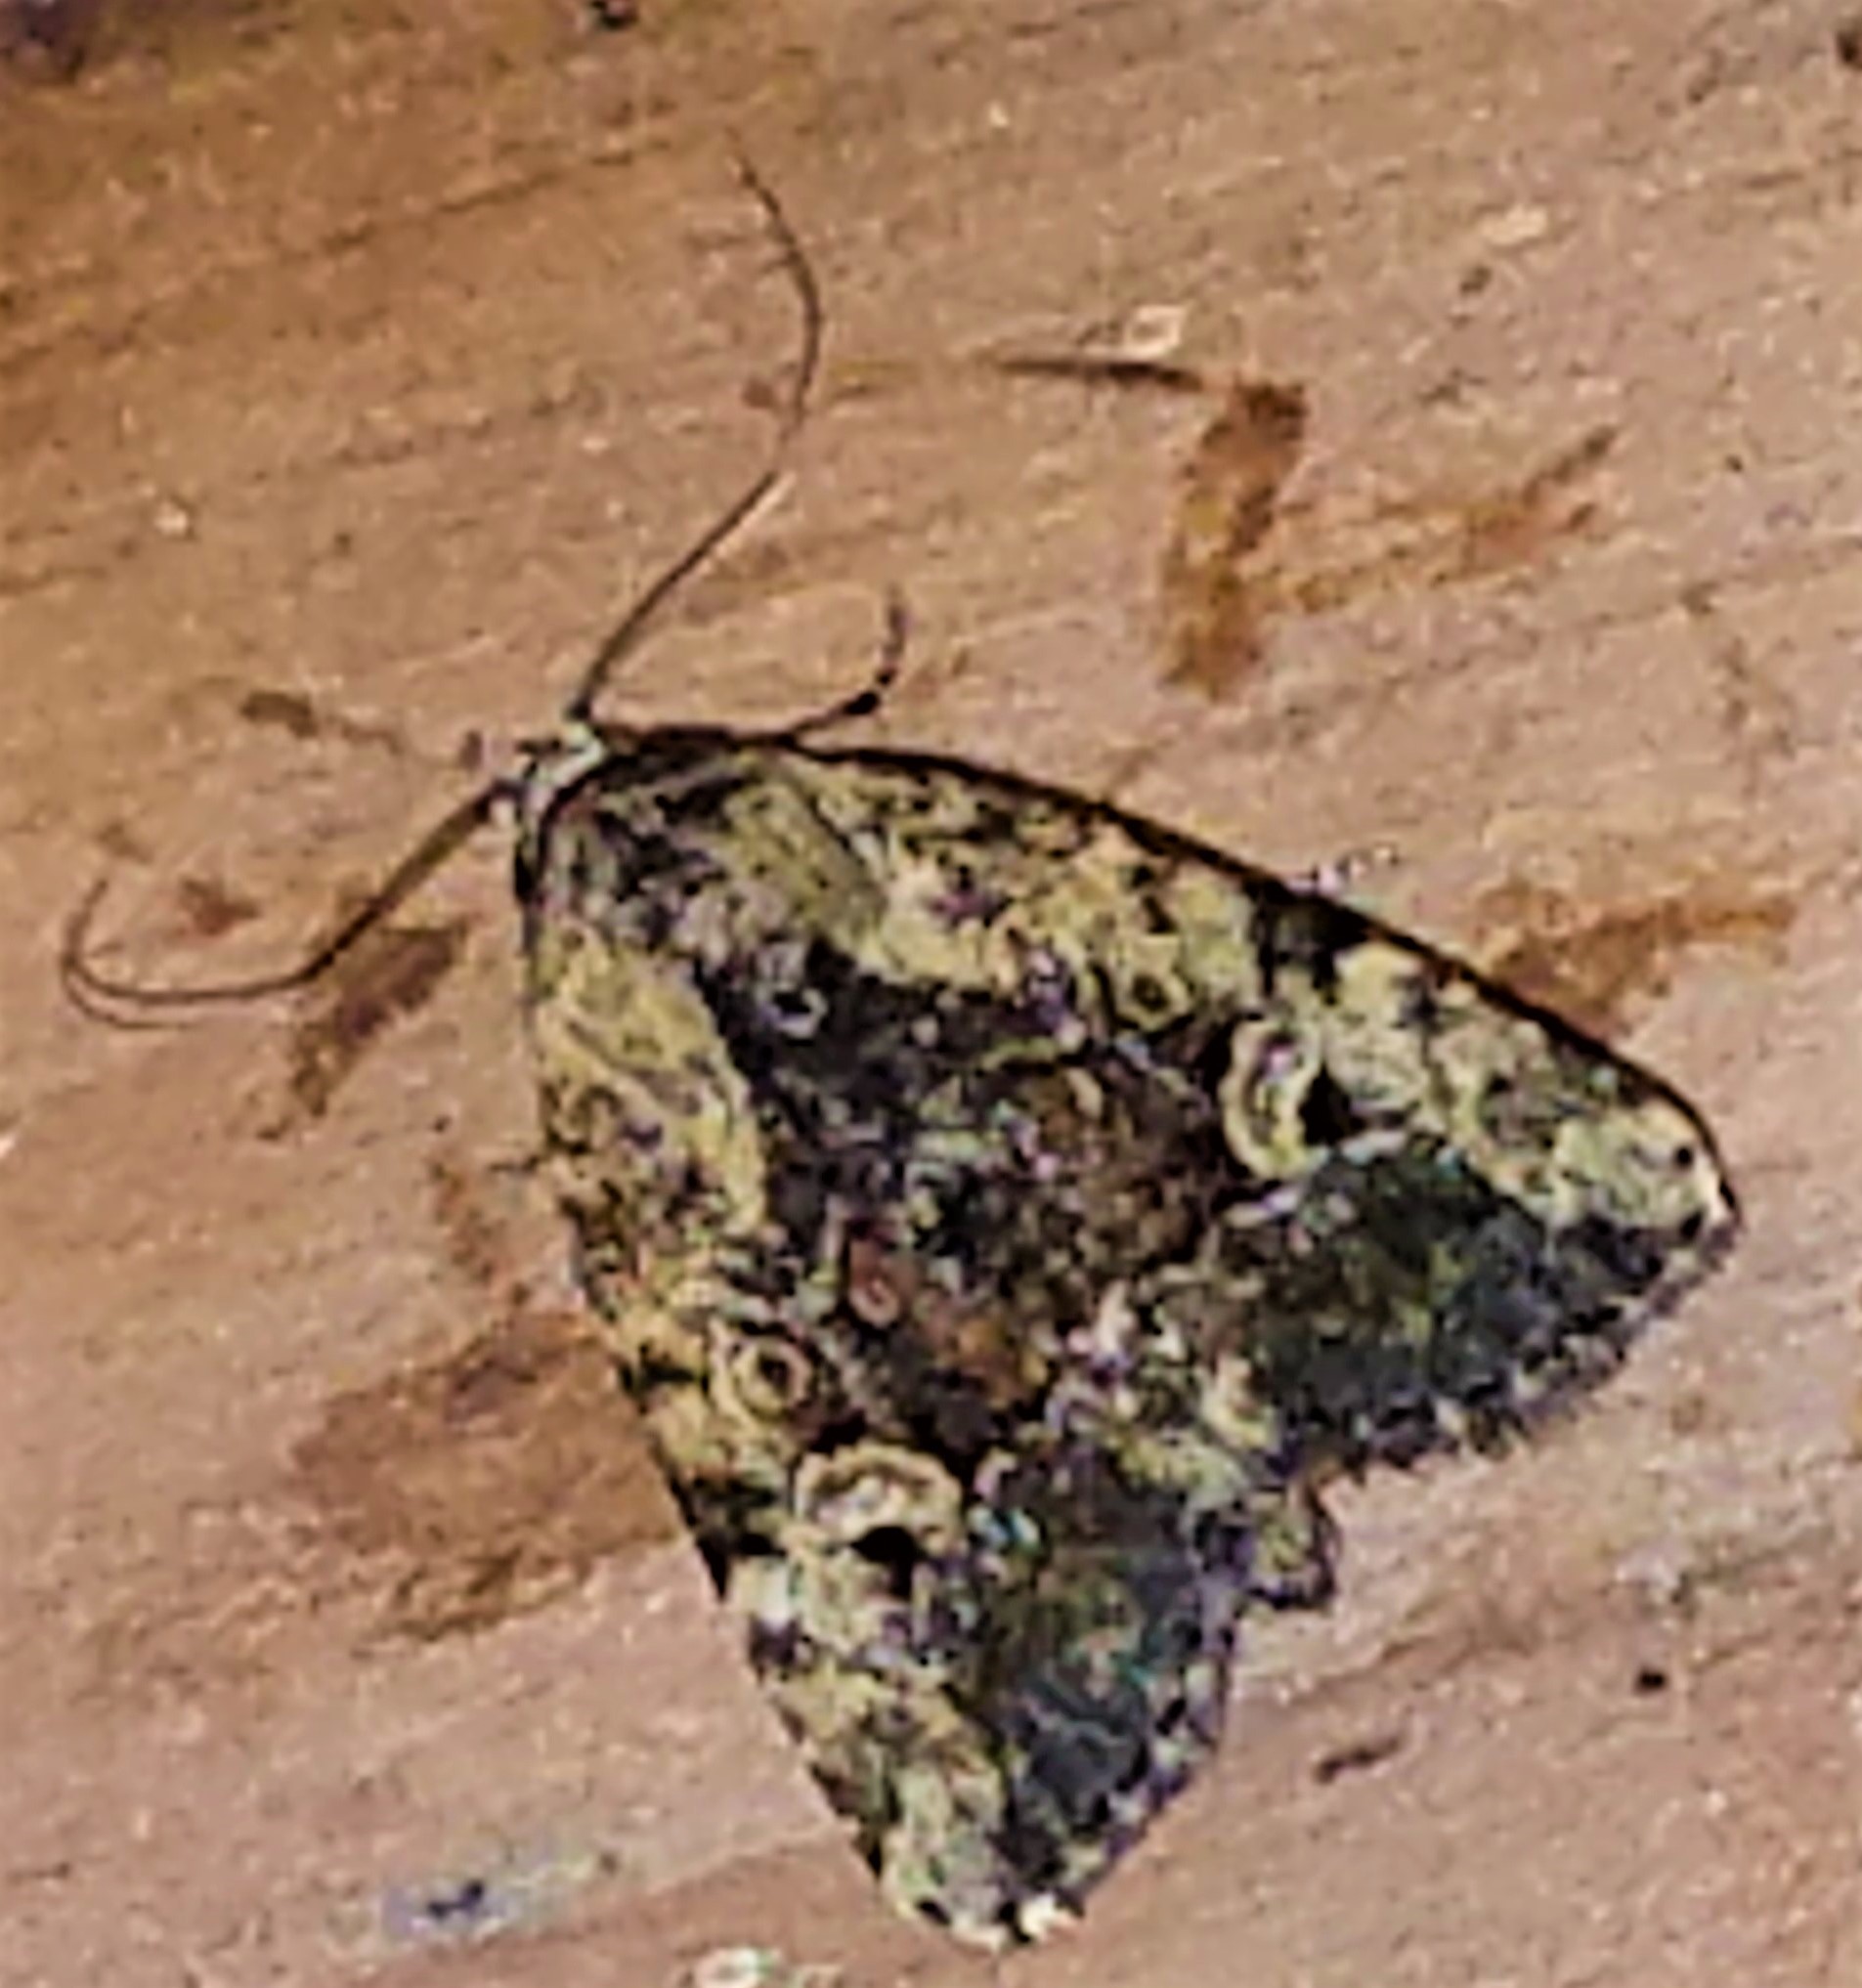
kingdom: Animalia
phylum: Arthropoda
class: Insecta
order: Lepidoptera
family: Noctuidae
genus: Elaphria
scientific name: Elaphria chalcedonia
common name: Chalcedony midget
